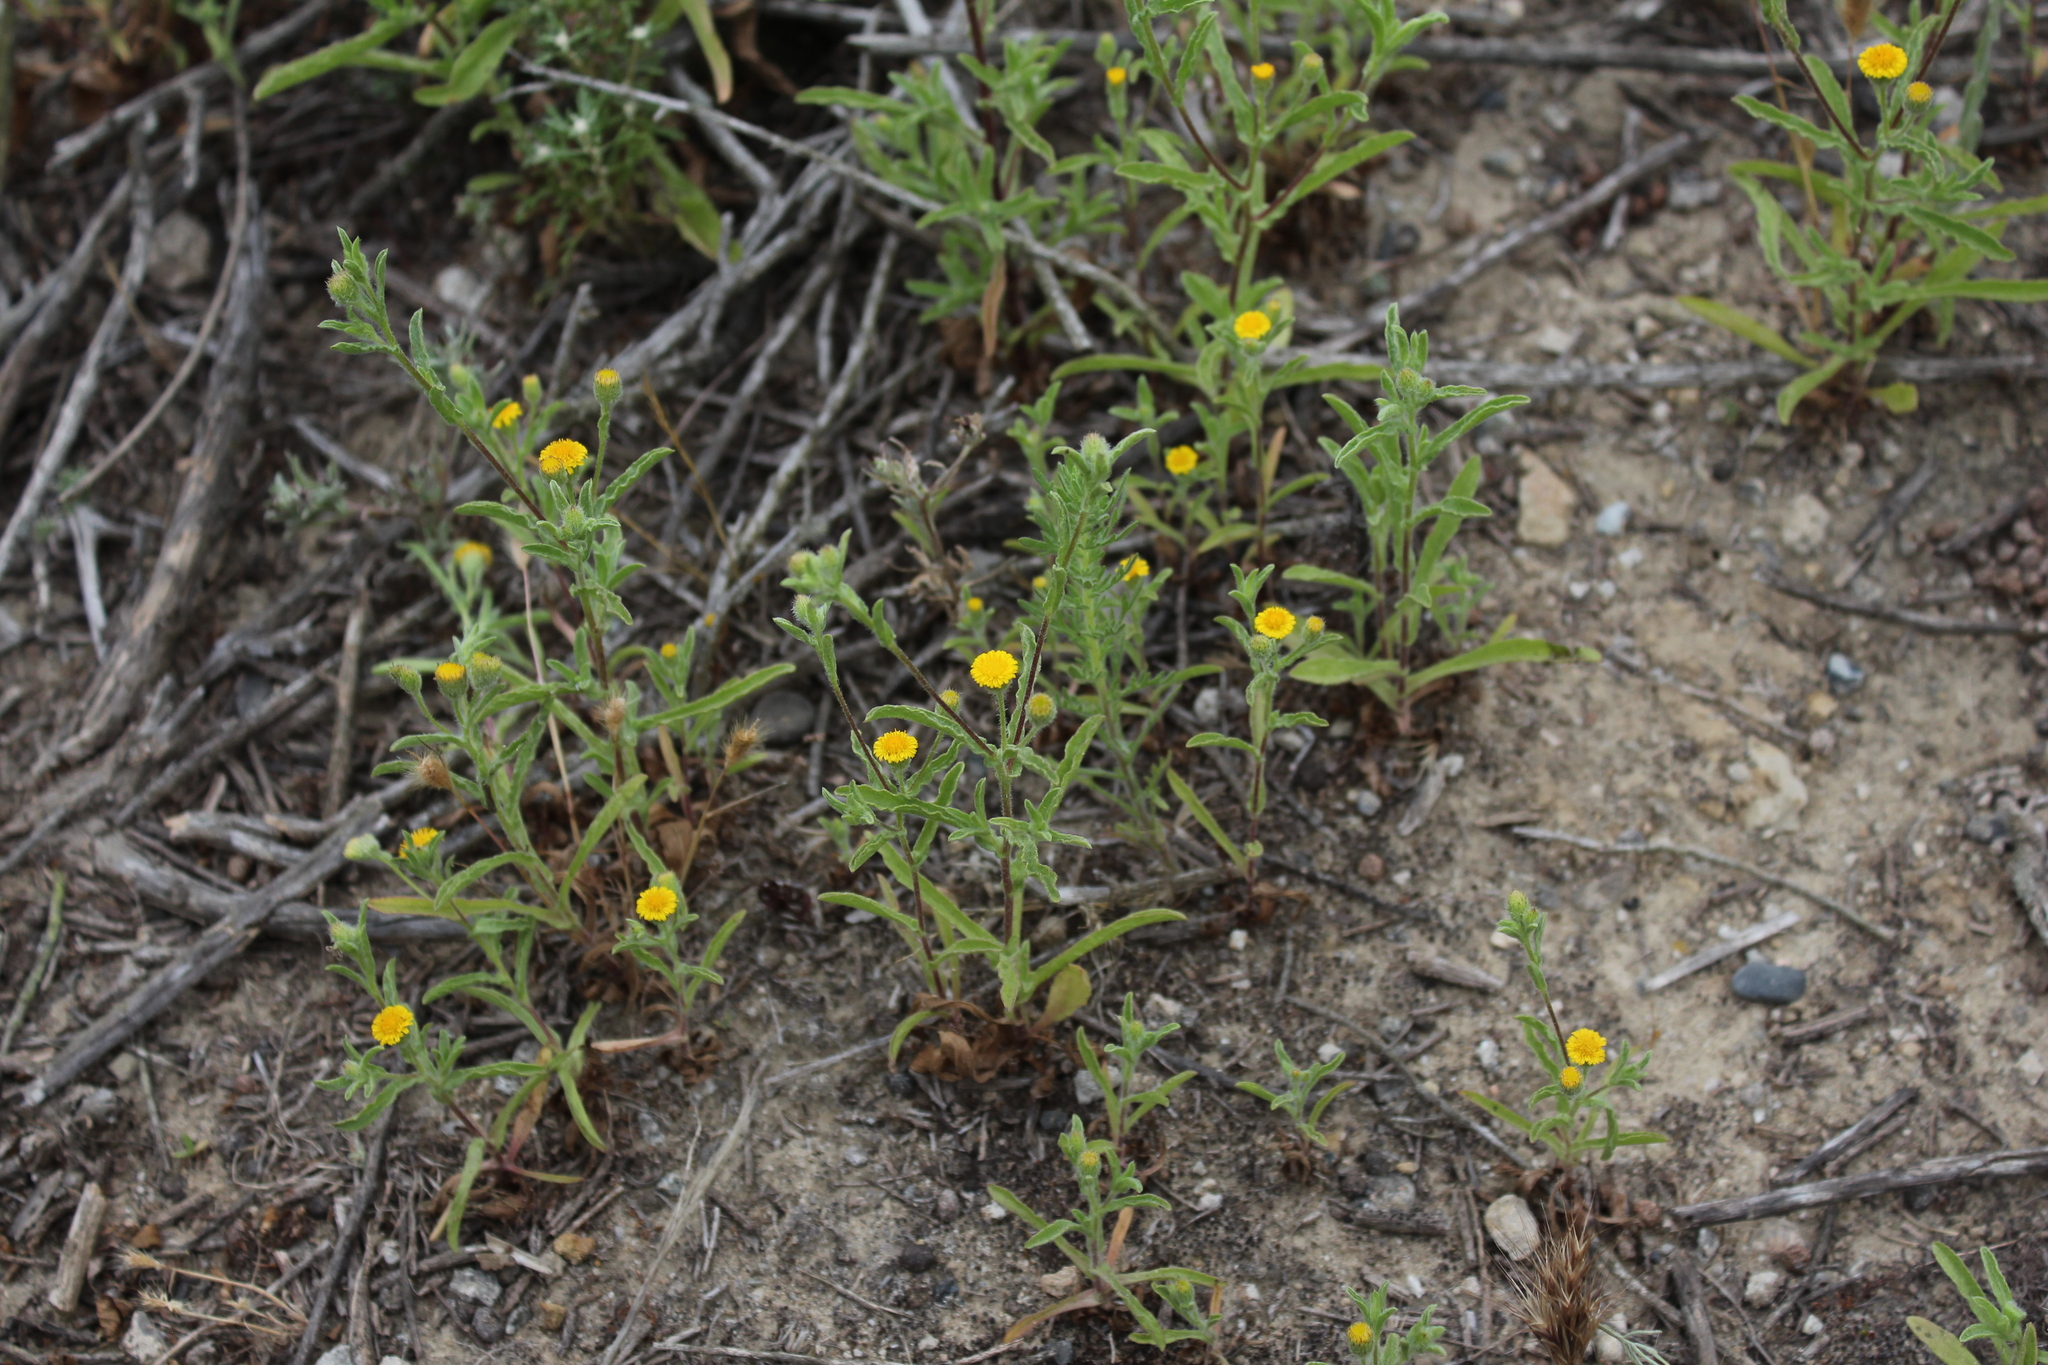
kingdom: Plantae
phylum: Tracheophyta
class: Magnoliopsida
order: Asterales
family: Asteraceae
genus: Pulicaria
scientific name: Pulicaria paludosa
